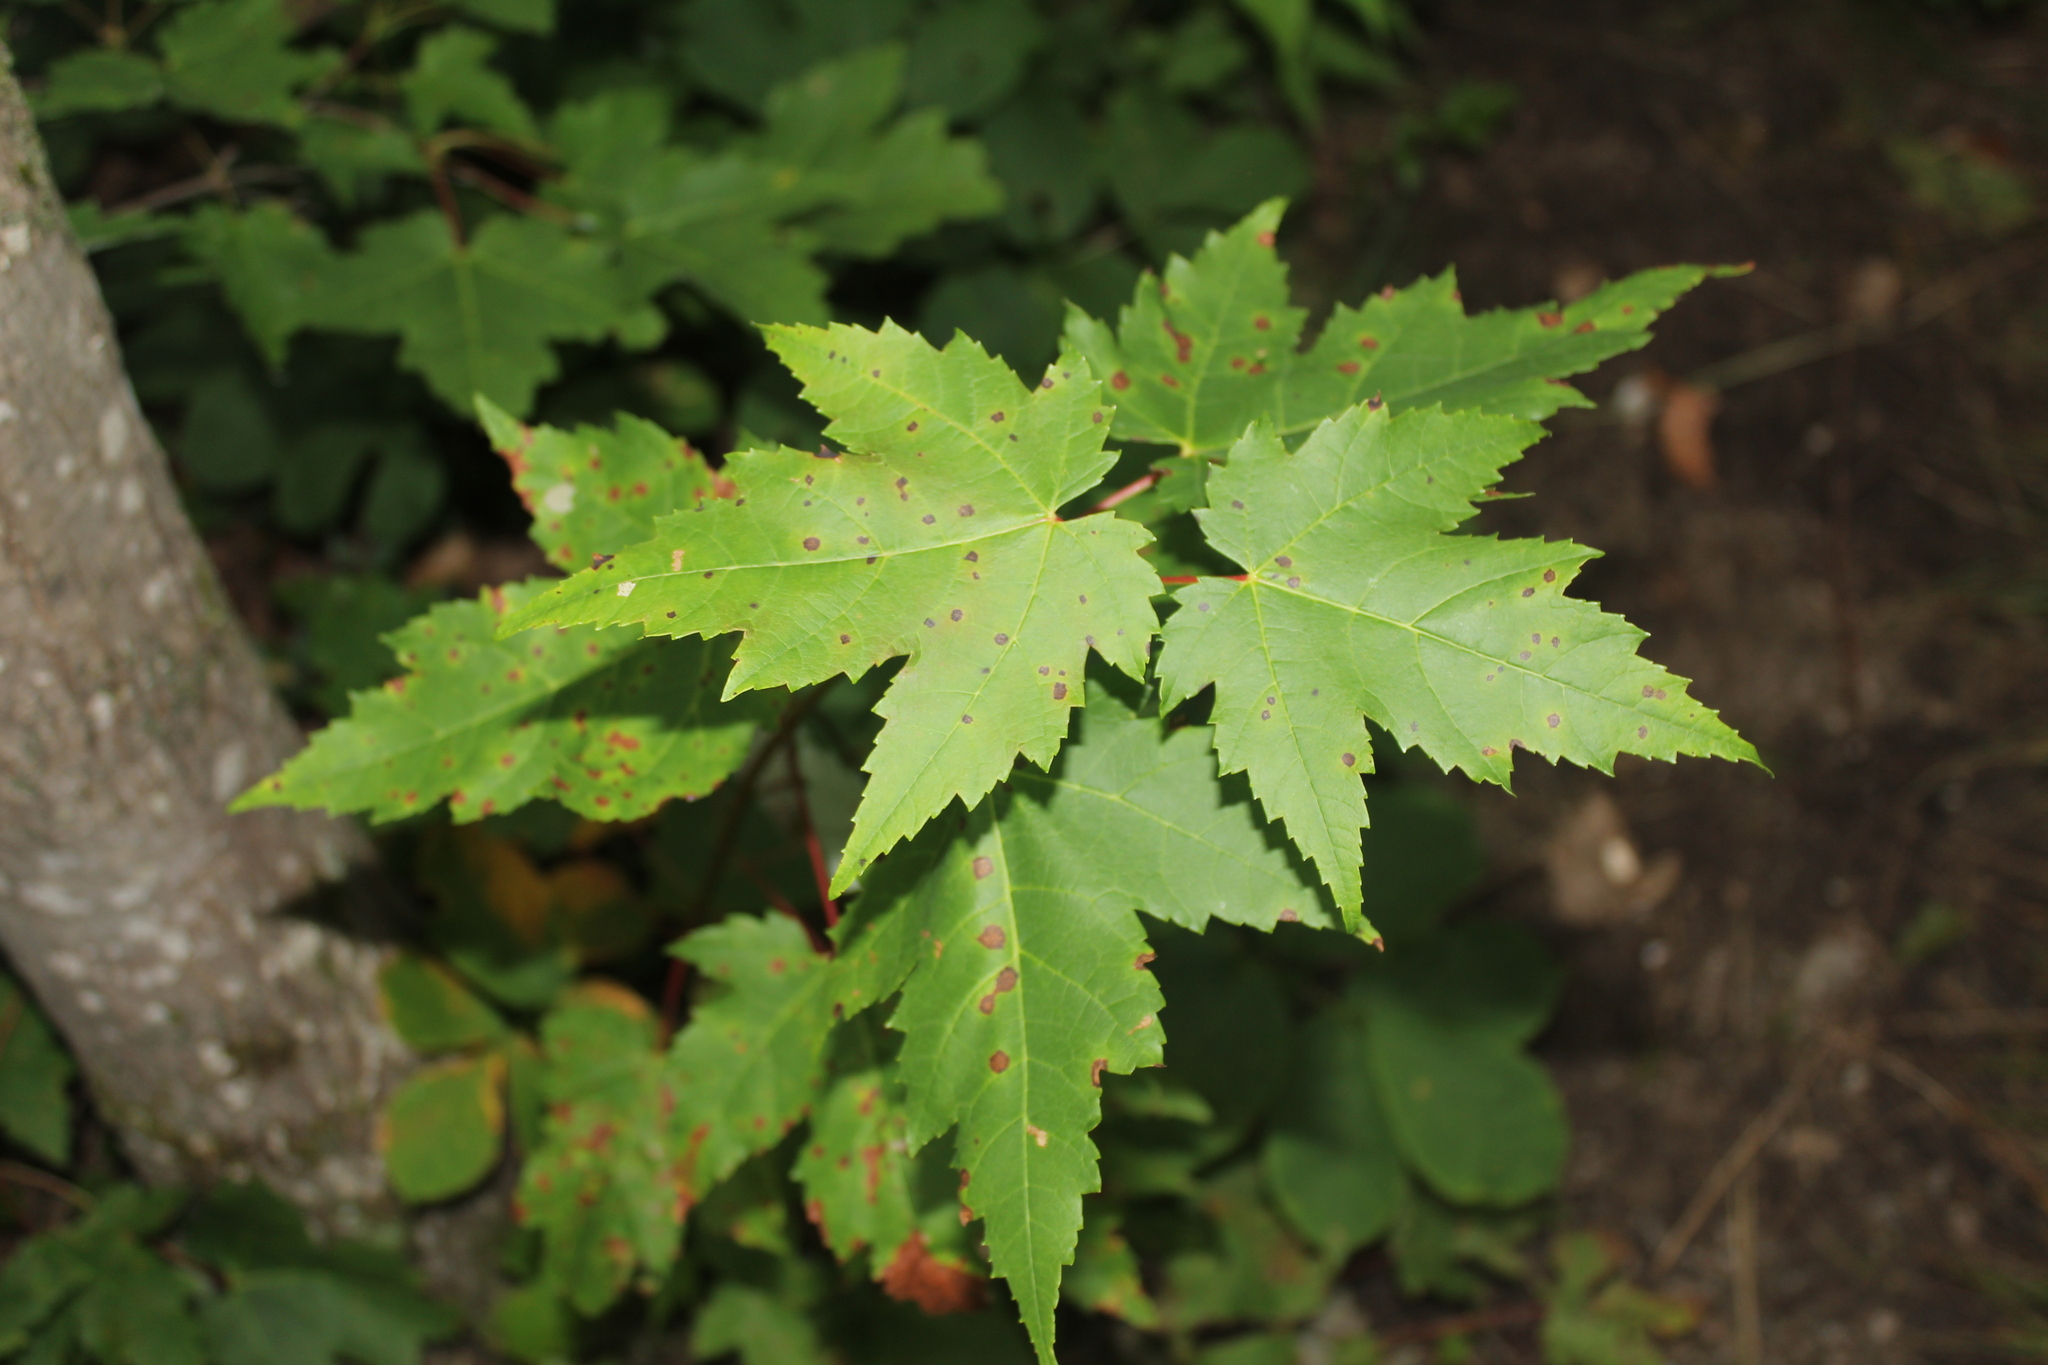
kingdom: Plantae
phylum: Tracheophyta
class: Magnoliopsida
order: Sapindales
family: Sapindaceae
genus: Acer
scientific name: Acer rubrum
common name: Red maple
